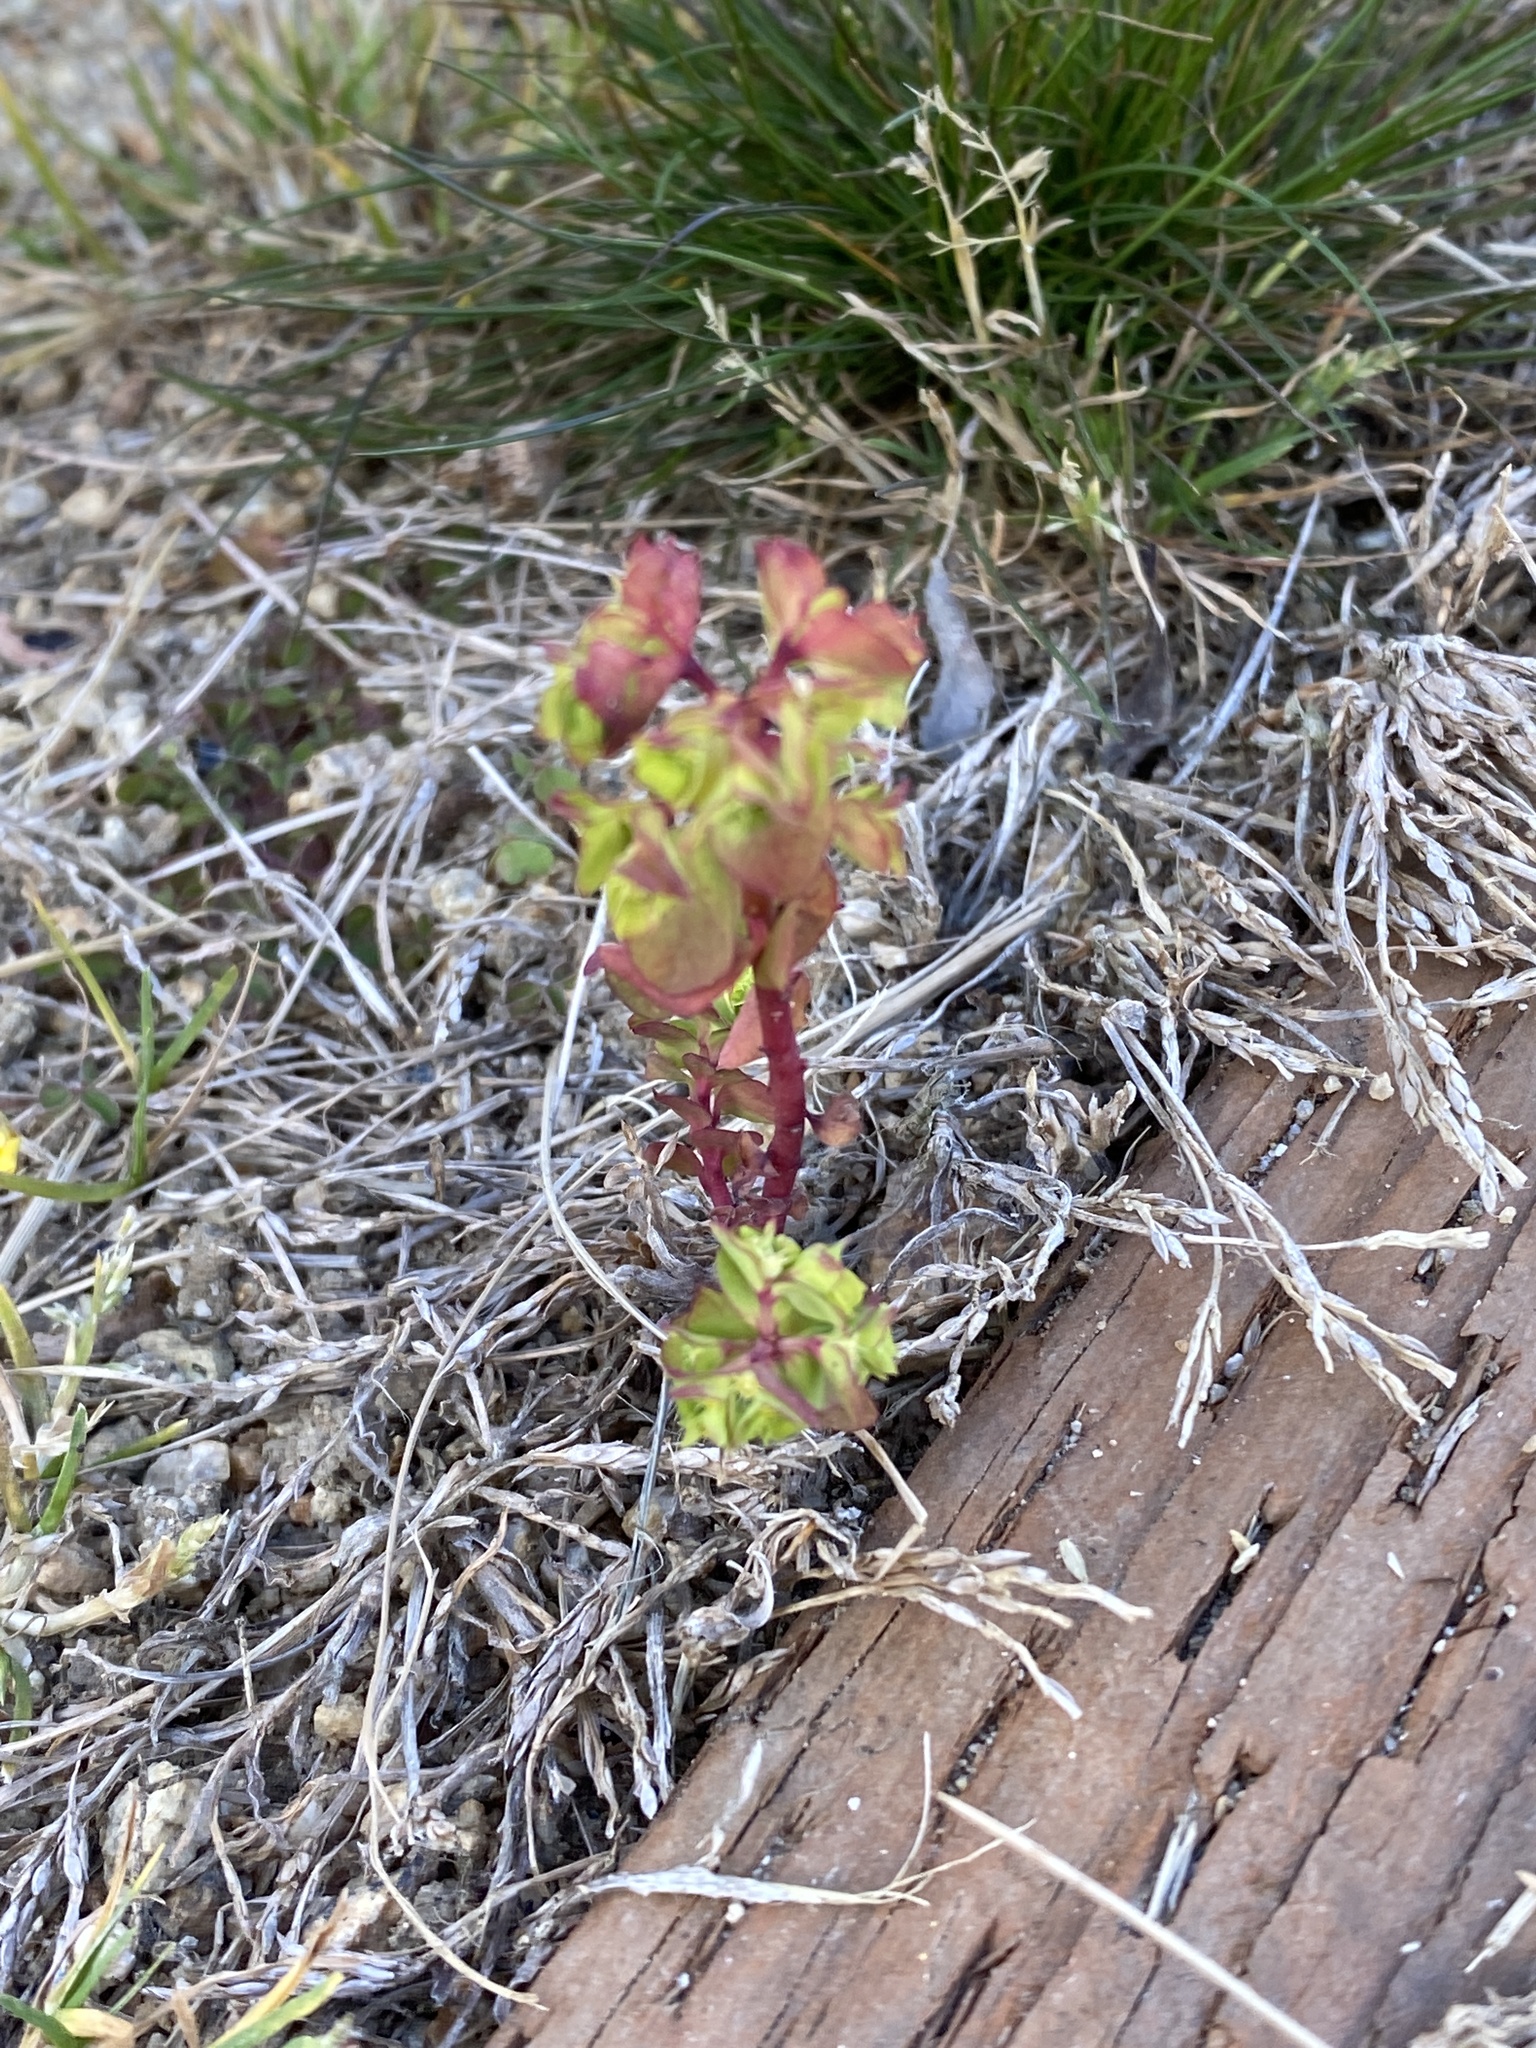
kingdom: Plantae
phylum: Tracheophyta
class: Magnoliopsida
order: Malpighiales
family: Euphorbiaceae
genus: Euphorbia
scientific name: Euphorbia peplus
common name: Petty spurge
